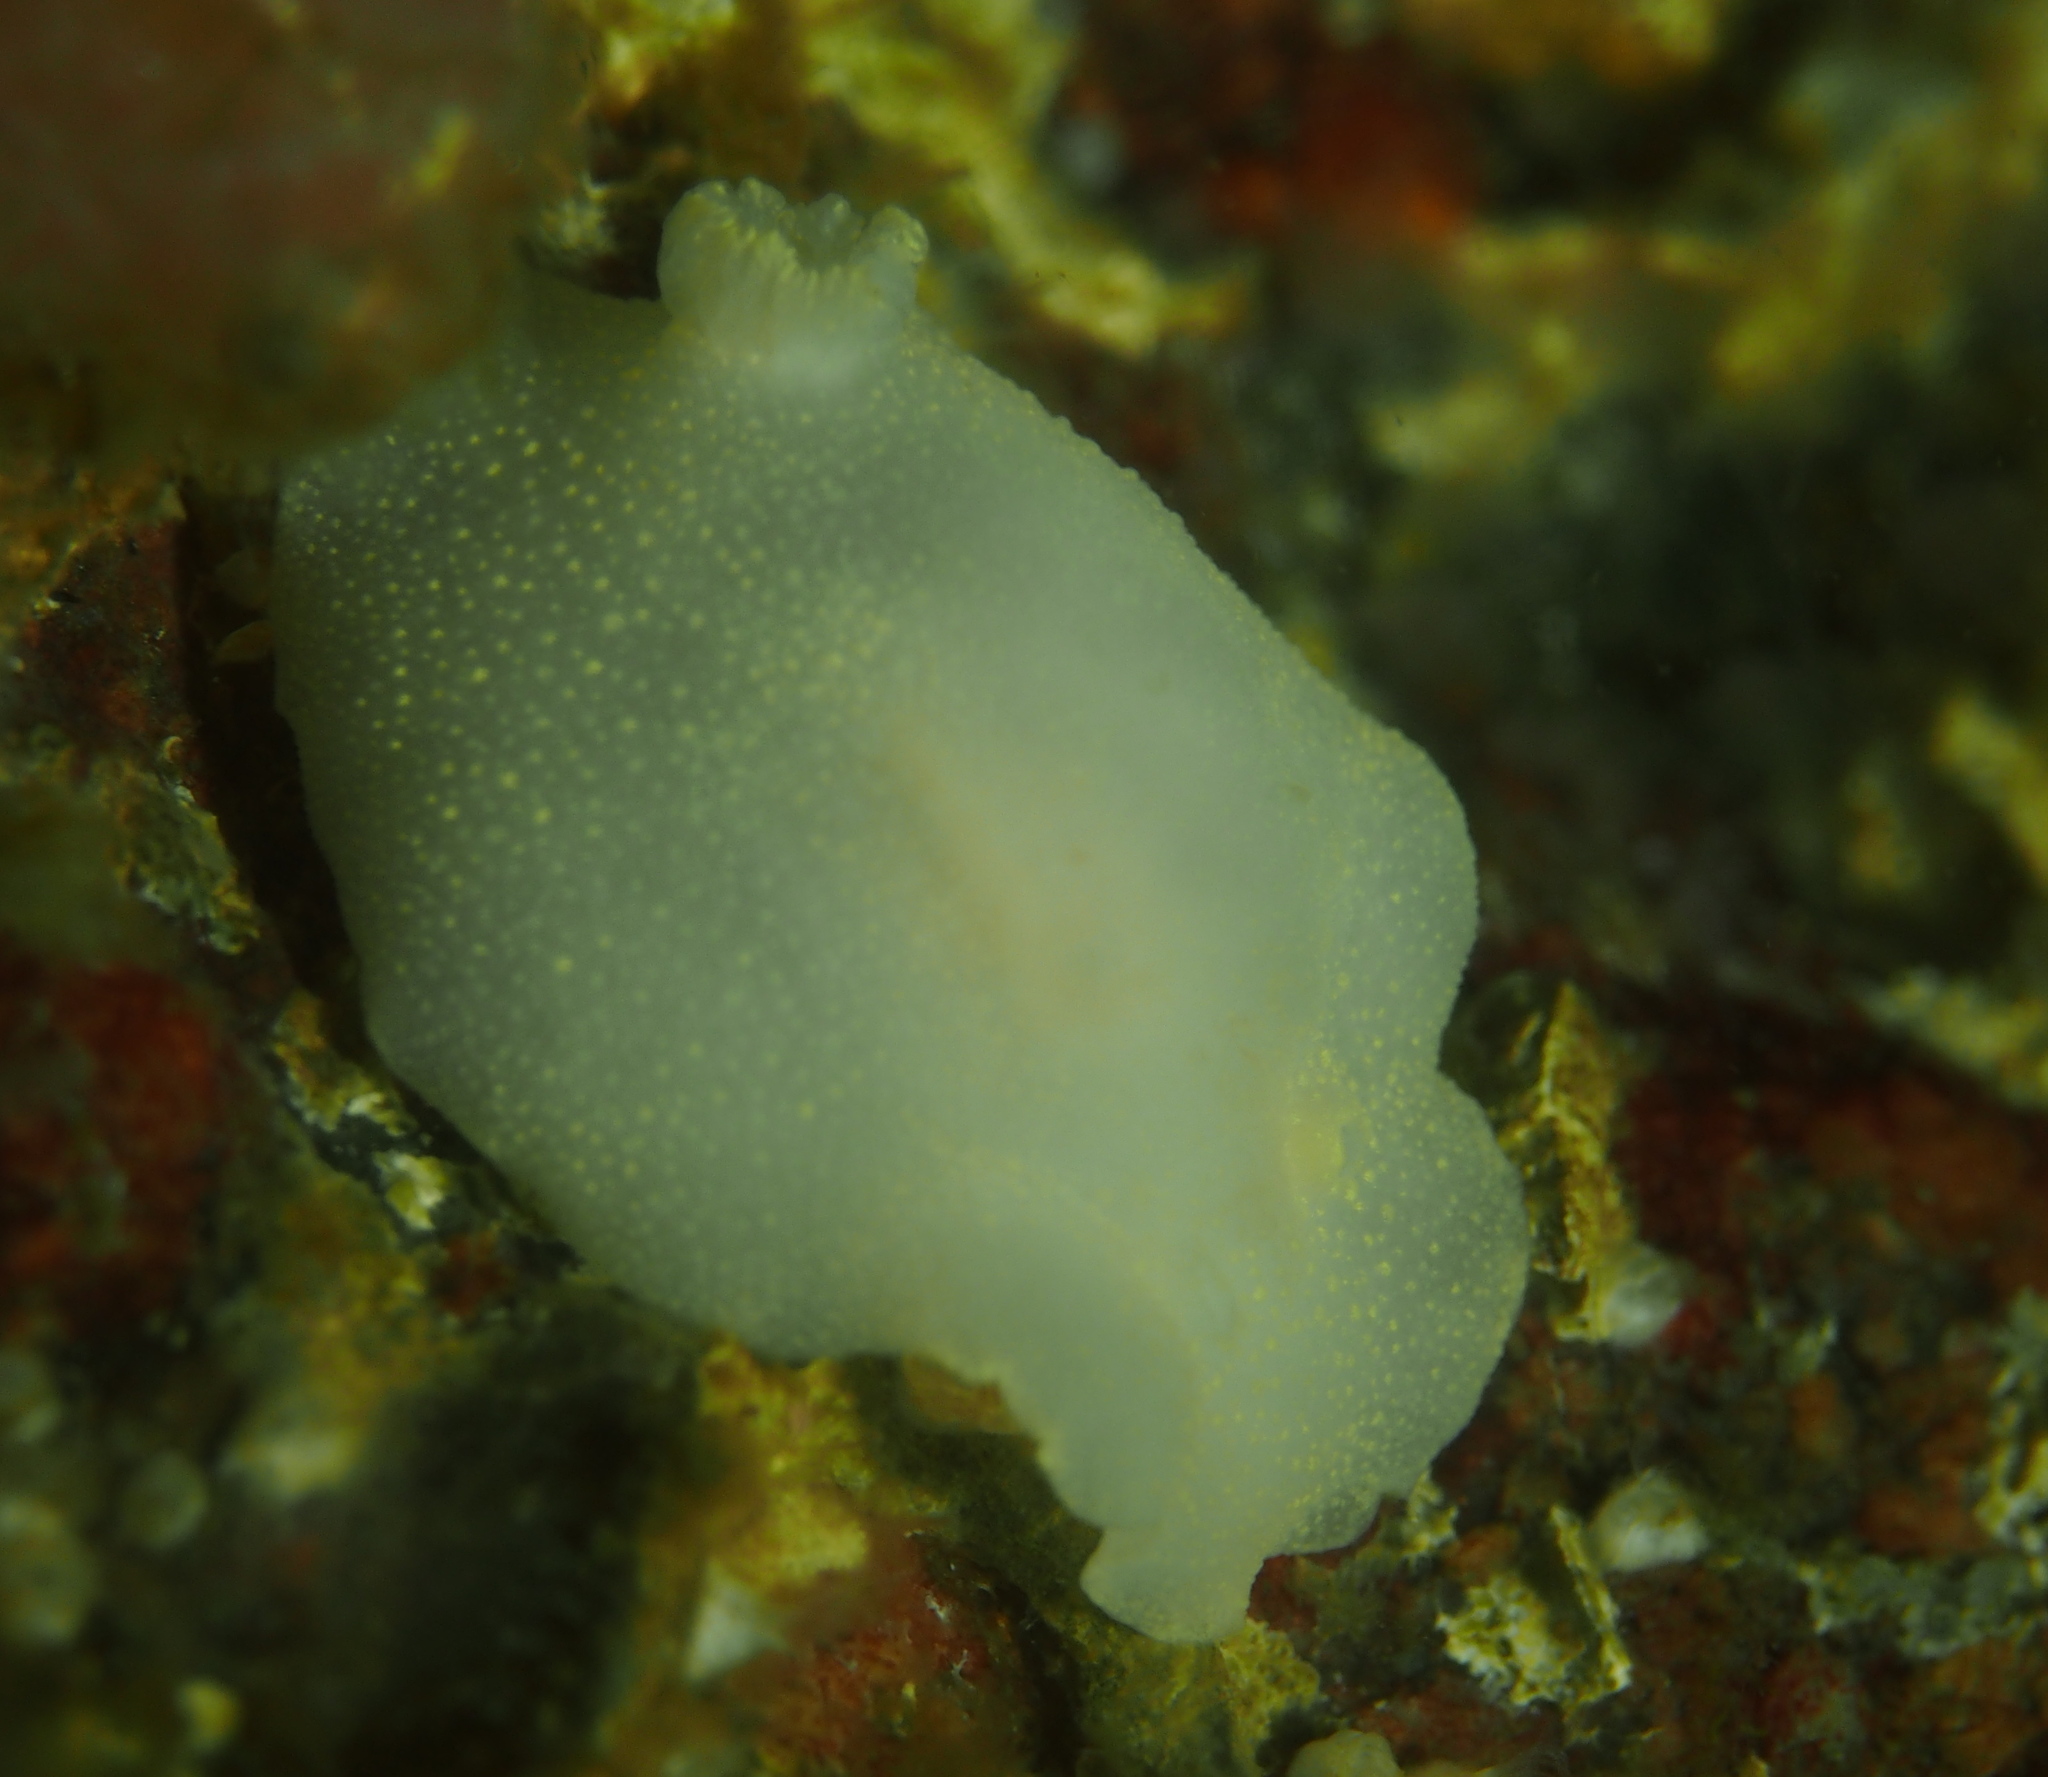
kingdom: Animalia
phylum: Mollusca
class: Gastropoda
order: Nudibranchia
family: Cadlinidae
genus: Cadlina
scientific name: Cadlina laevis
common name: White atlantic cadlina
